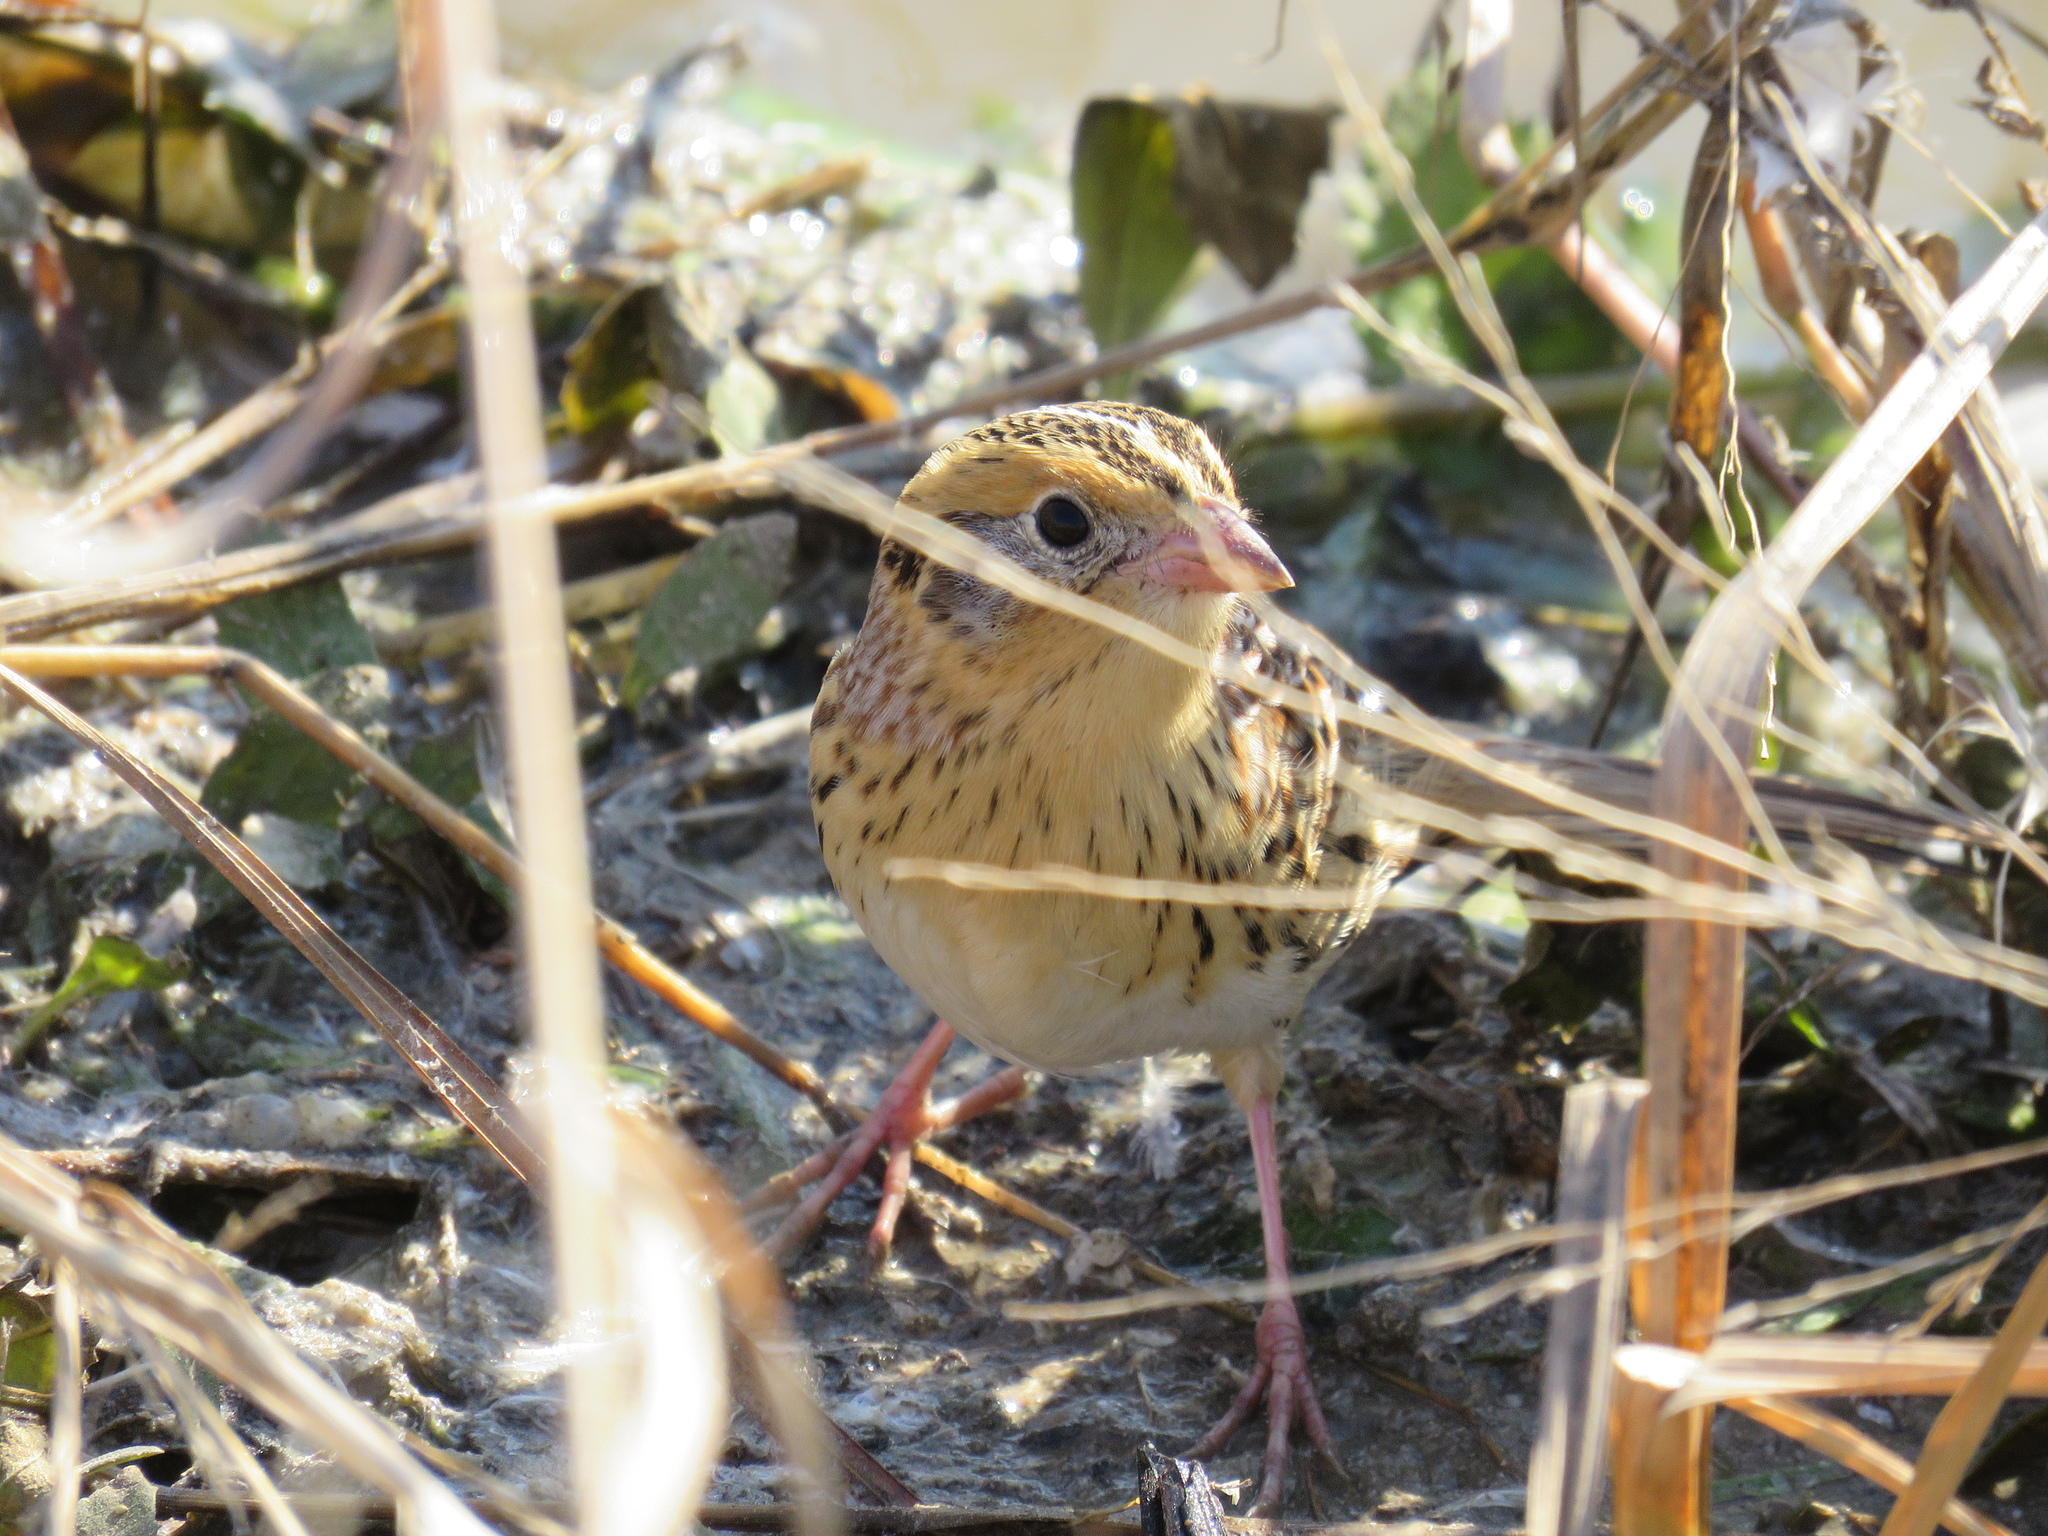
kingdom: Animalia
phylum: Chordata
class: Aves
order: Passeriformes
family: Passerellidae
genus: Ammospiza
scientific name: Ammospiza leconteii
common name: Le conte's sparrow
